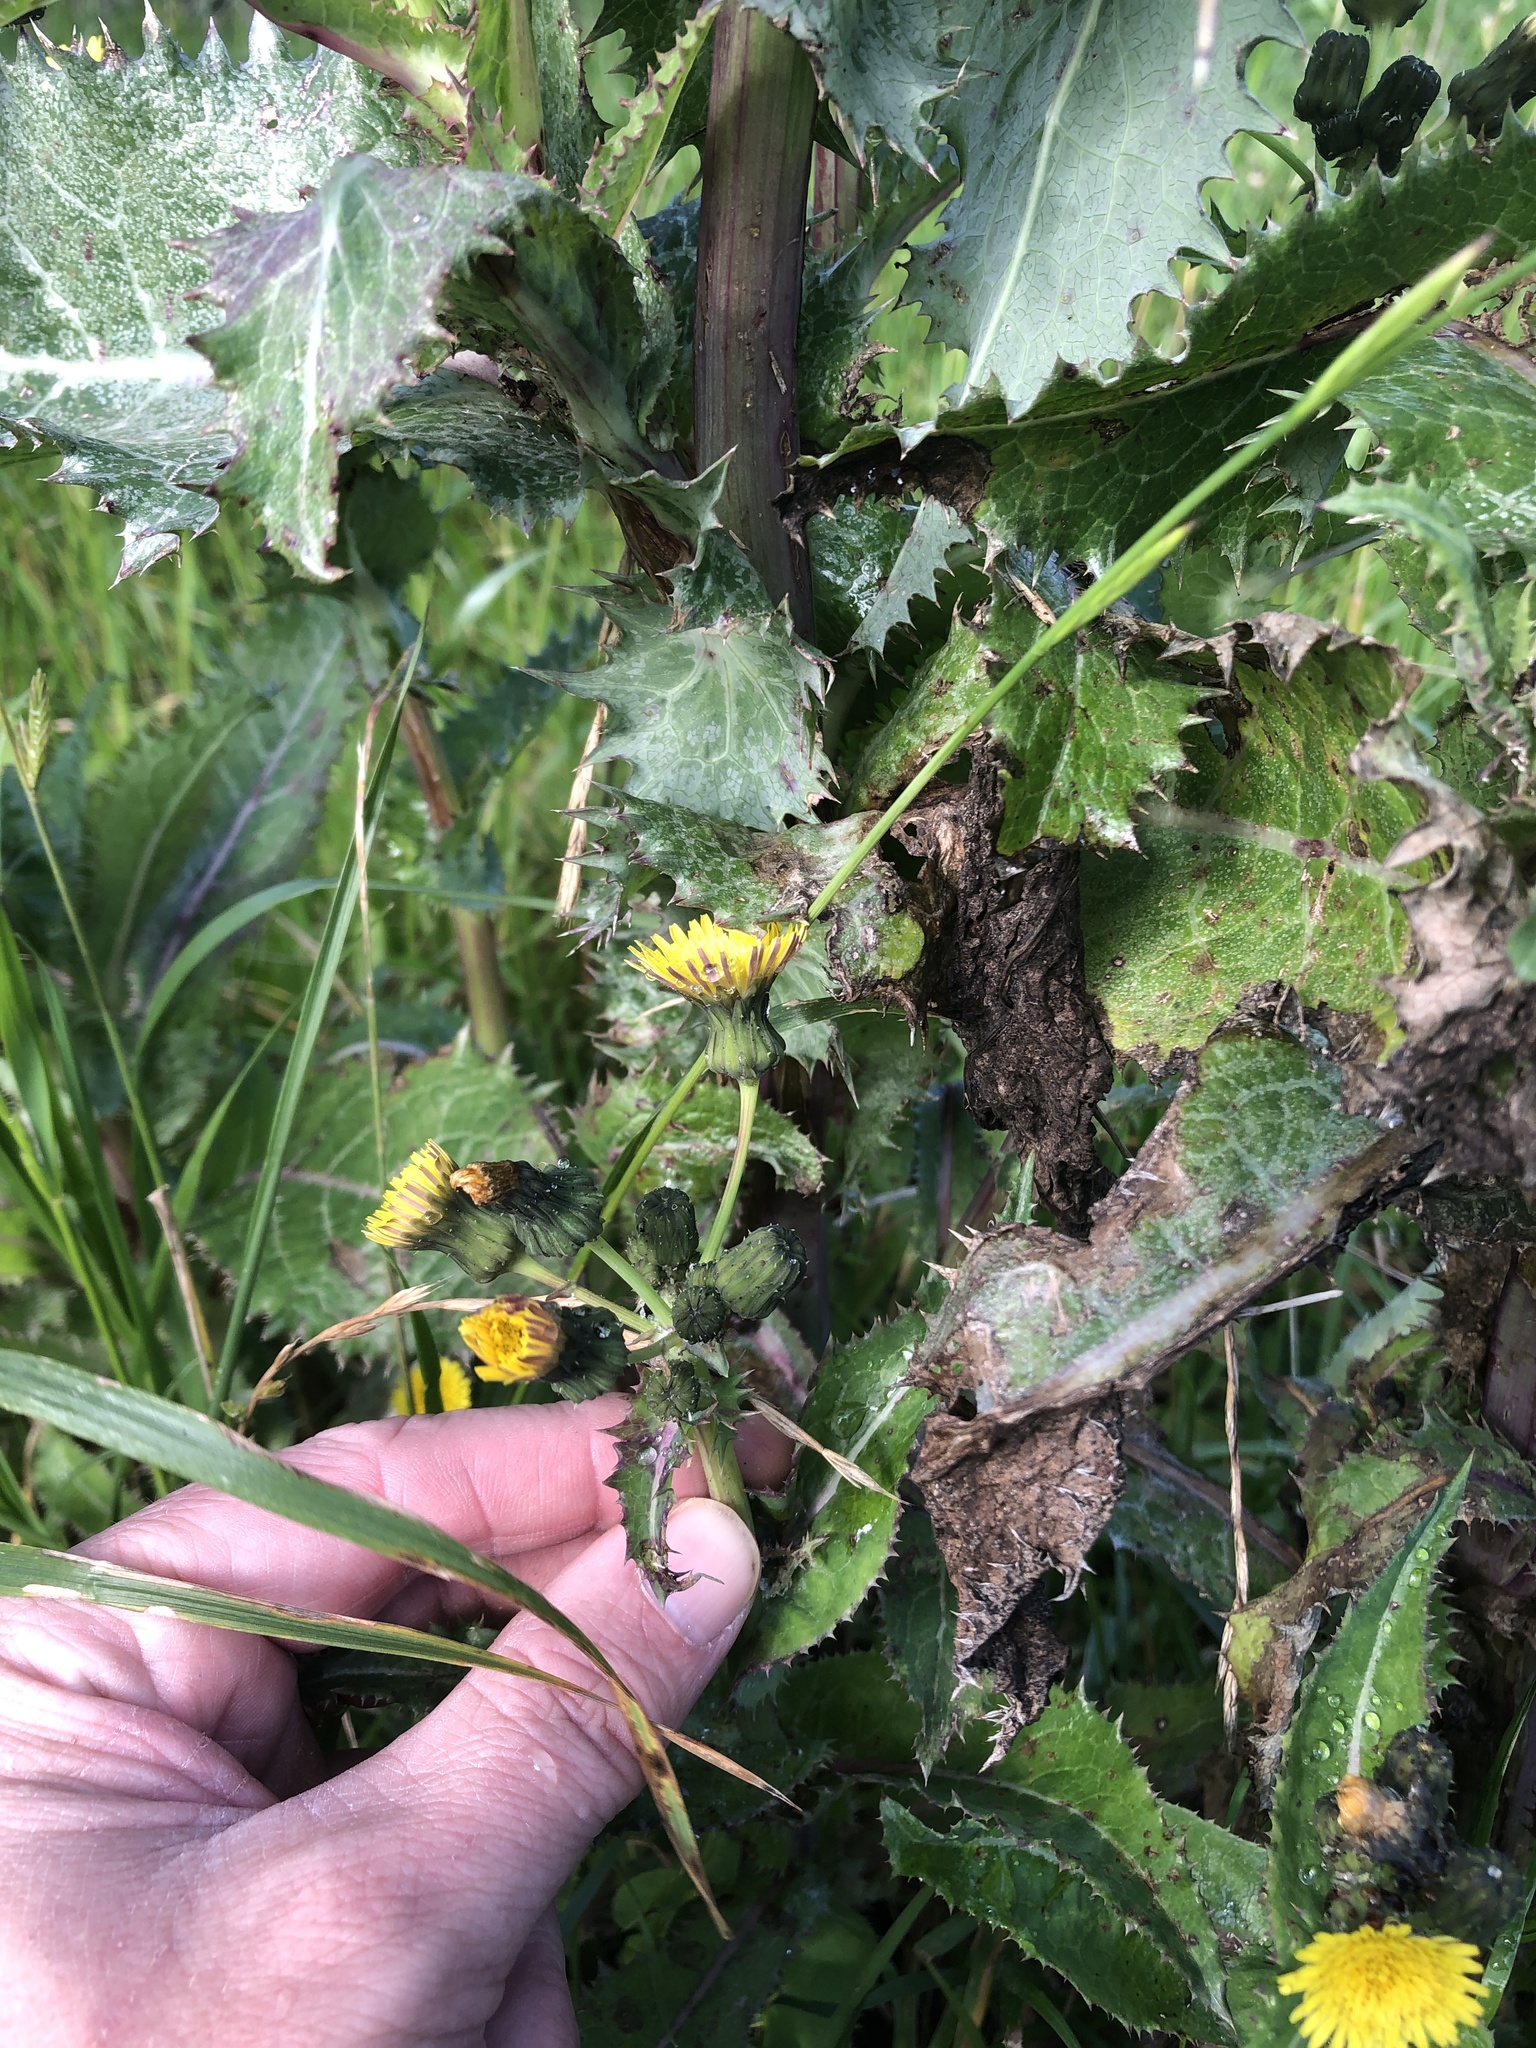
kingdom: Plantae
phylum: Tracheophyta
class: Magnoliopsida
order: Asterales
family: Asteraceae
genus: Sonchus
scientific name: Sonchus asper
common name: Prickly sow-thistle
